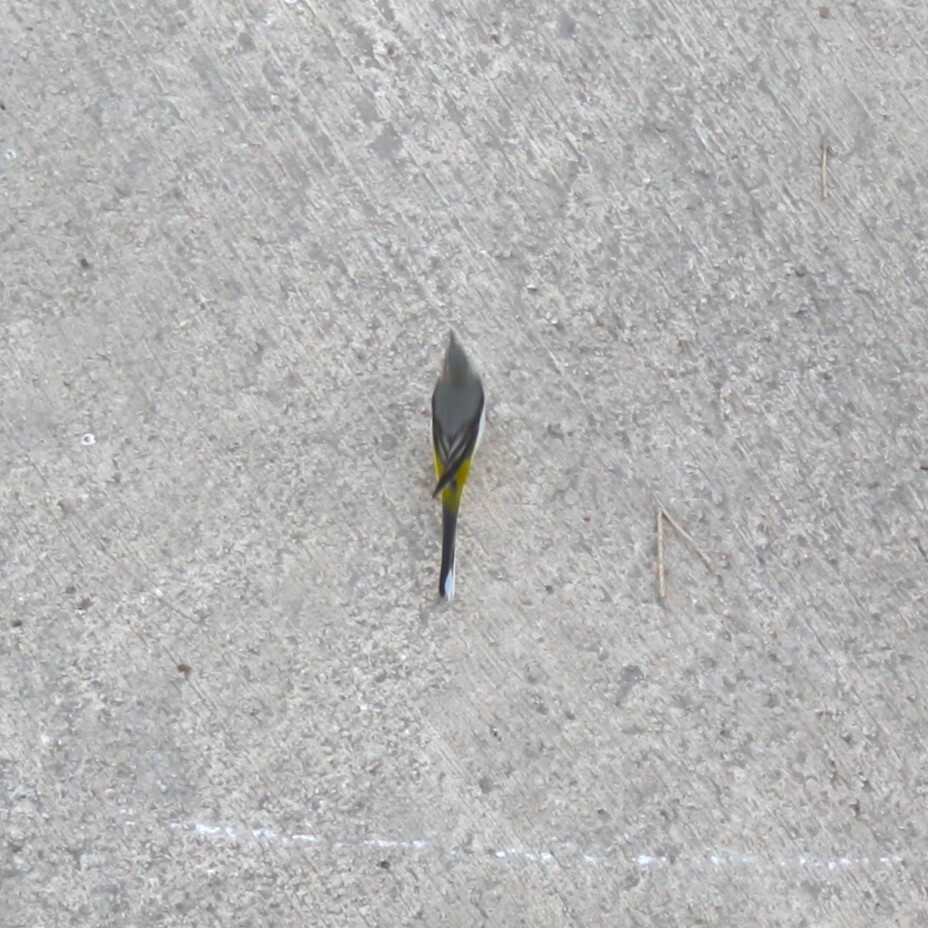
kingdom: Animalia
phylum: Chordata
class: Aves
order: Passeriformes
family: Motacillidae
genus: Motacilla
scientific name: Motacilla cinerea
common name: Grey wagtail
